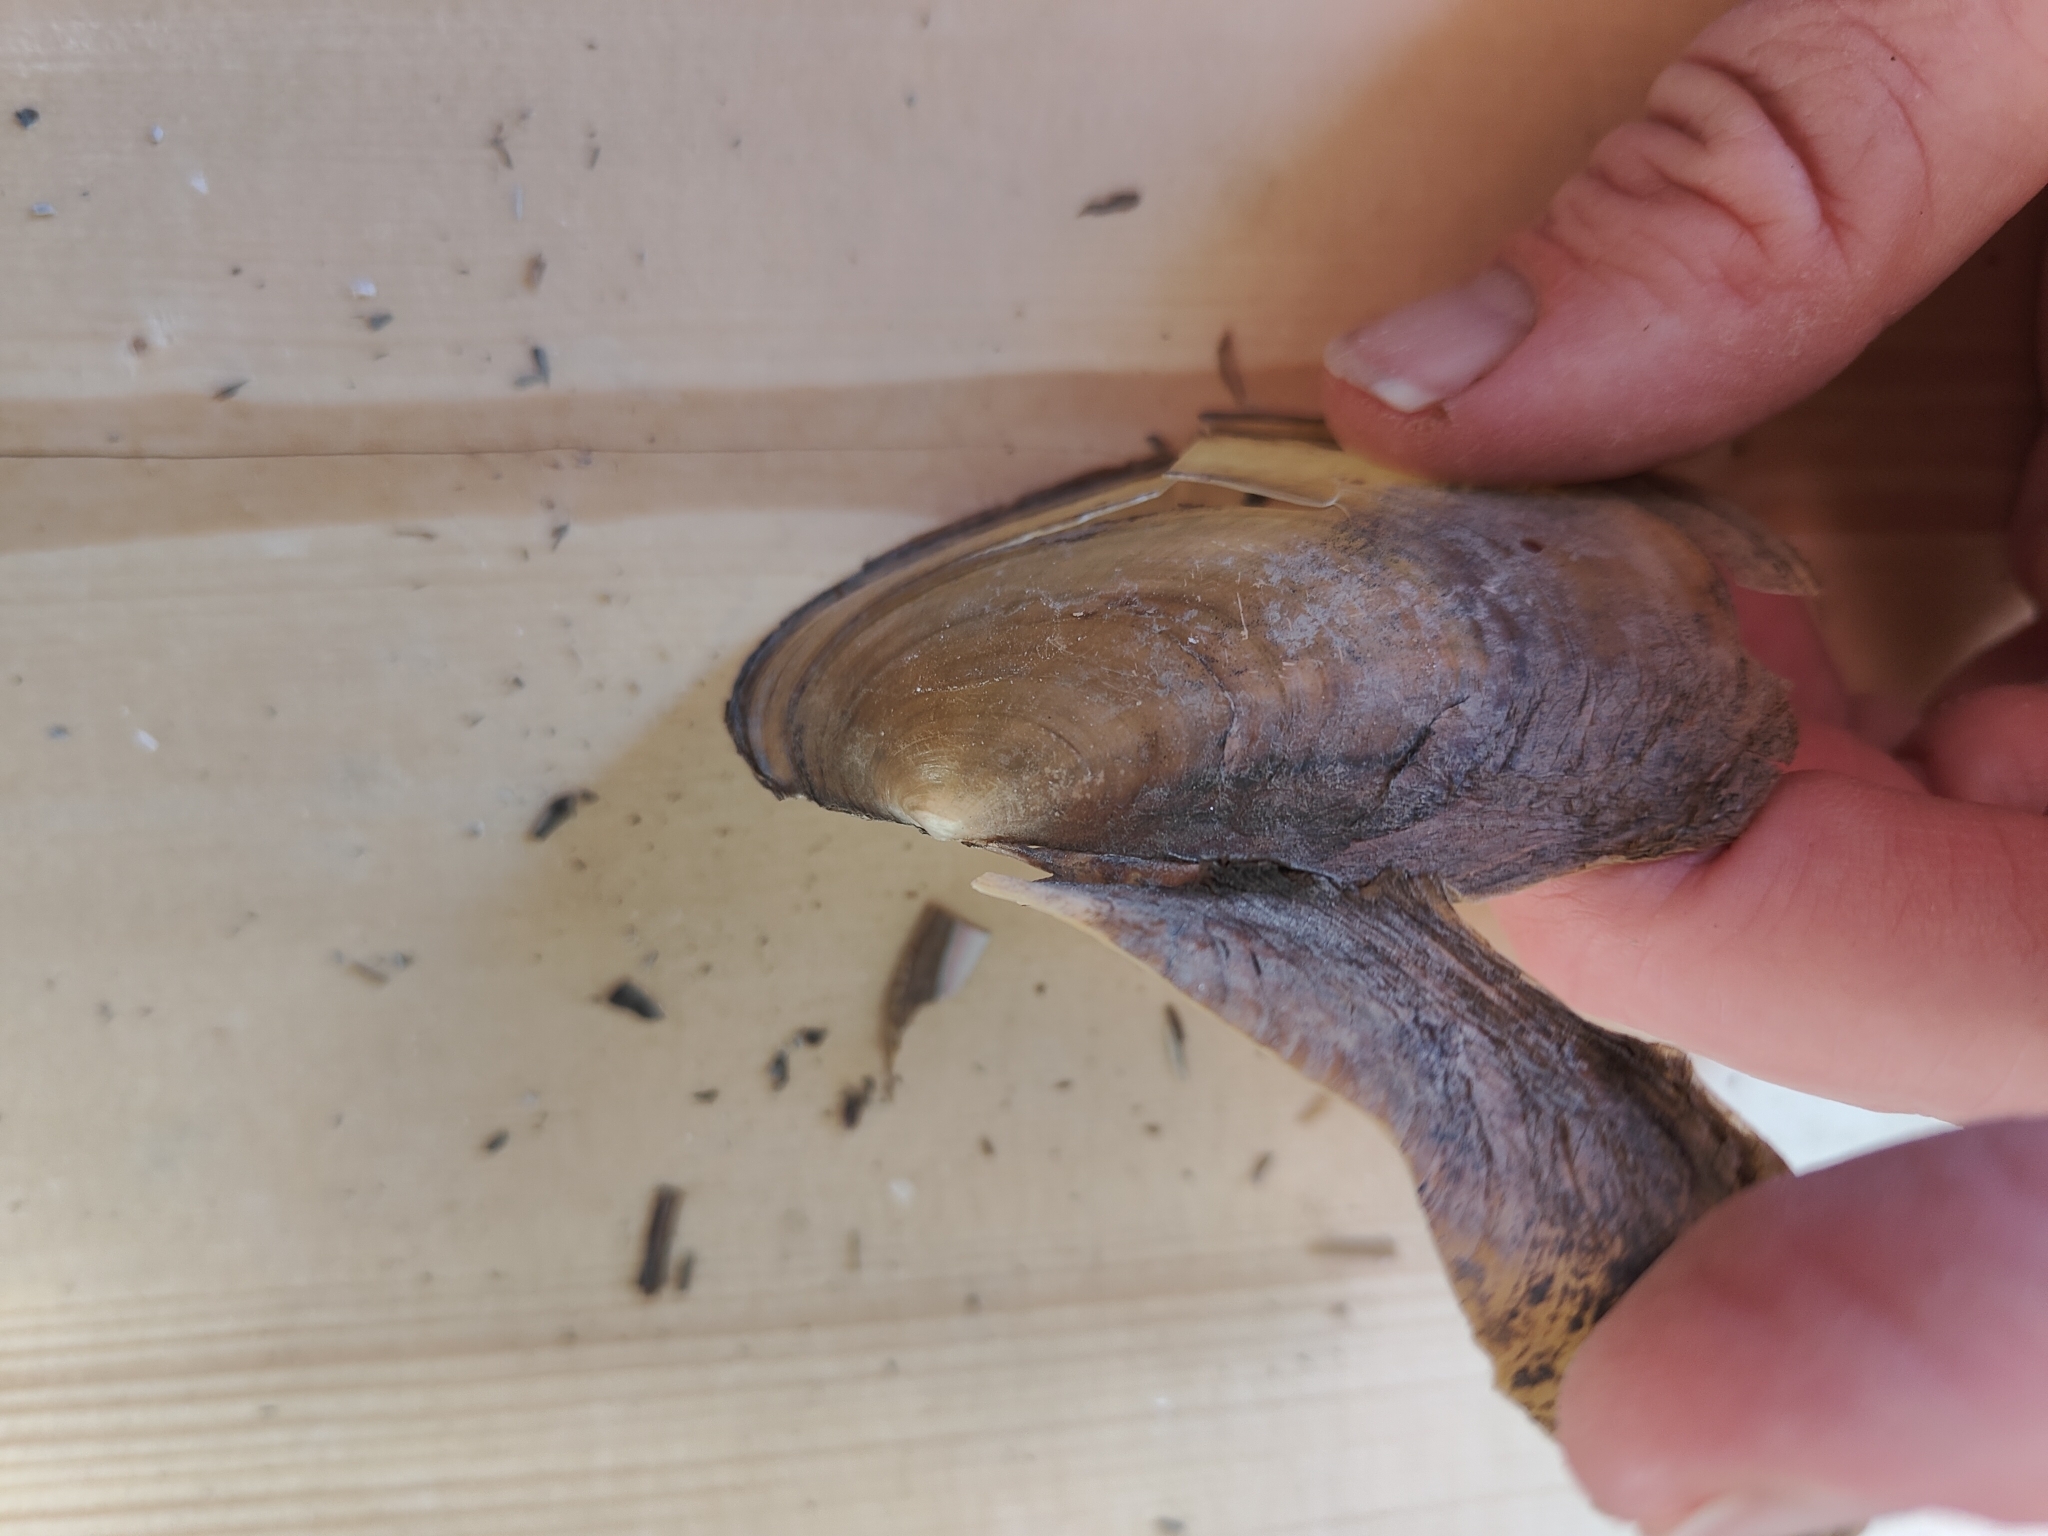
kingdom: Animalia
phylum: Mollusca
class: Bivalvia
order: Unionida
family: Unionidae
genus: Potamilus
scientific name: Potamilus fragilis
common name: Fragile papershell
